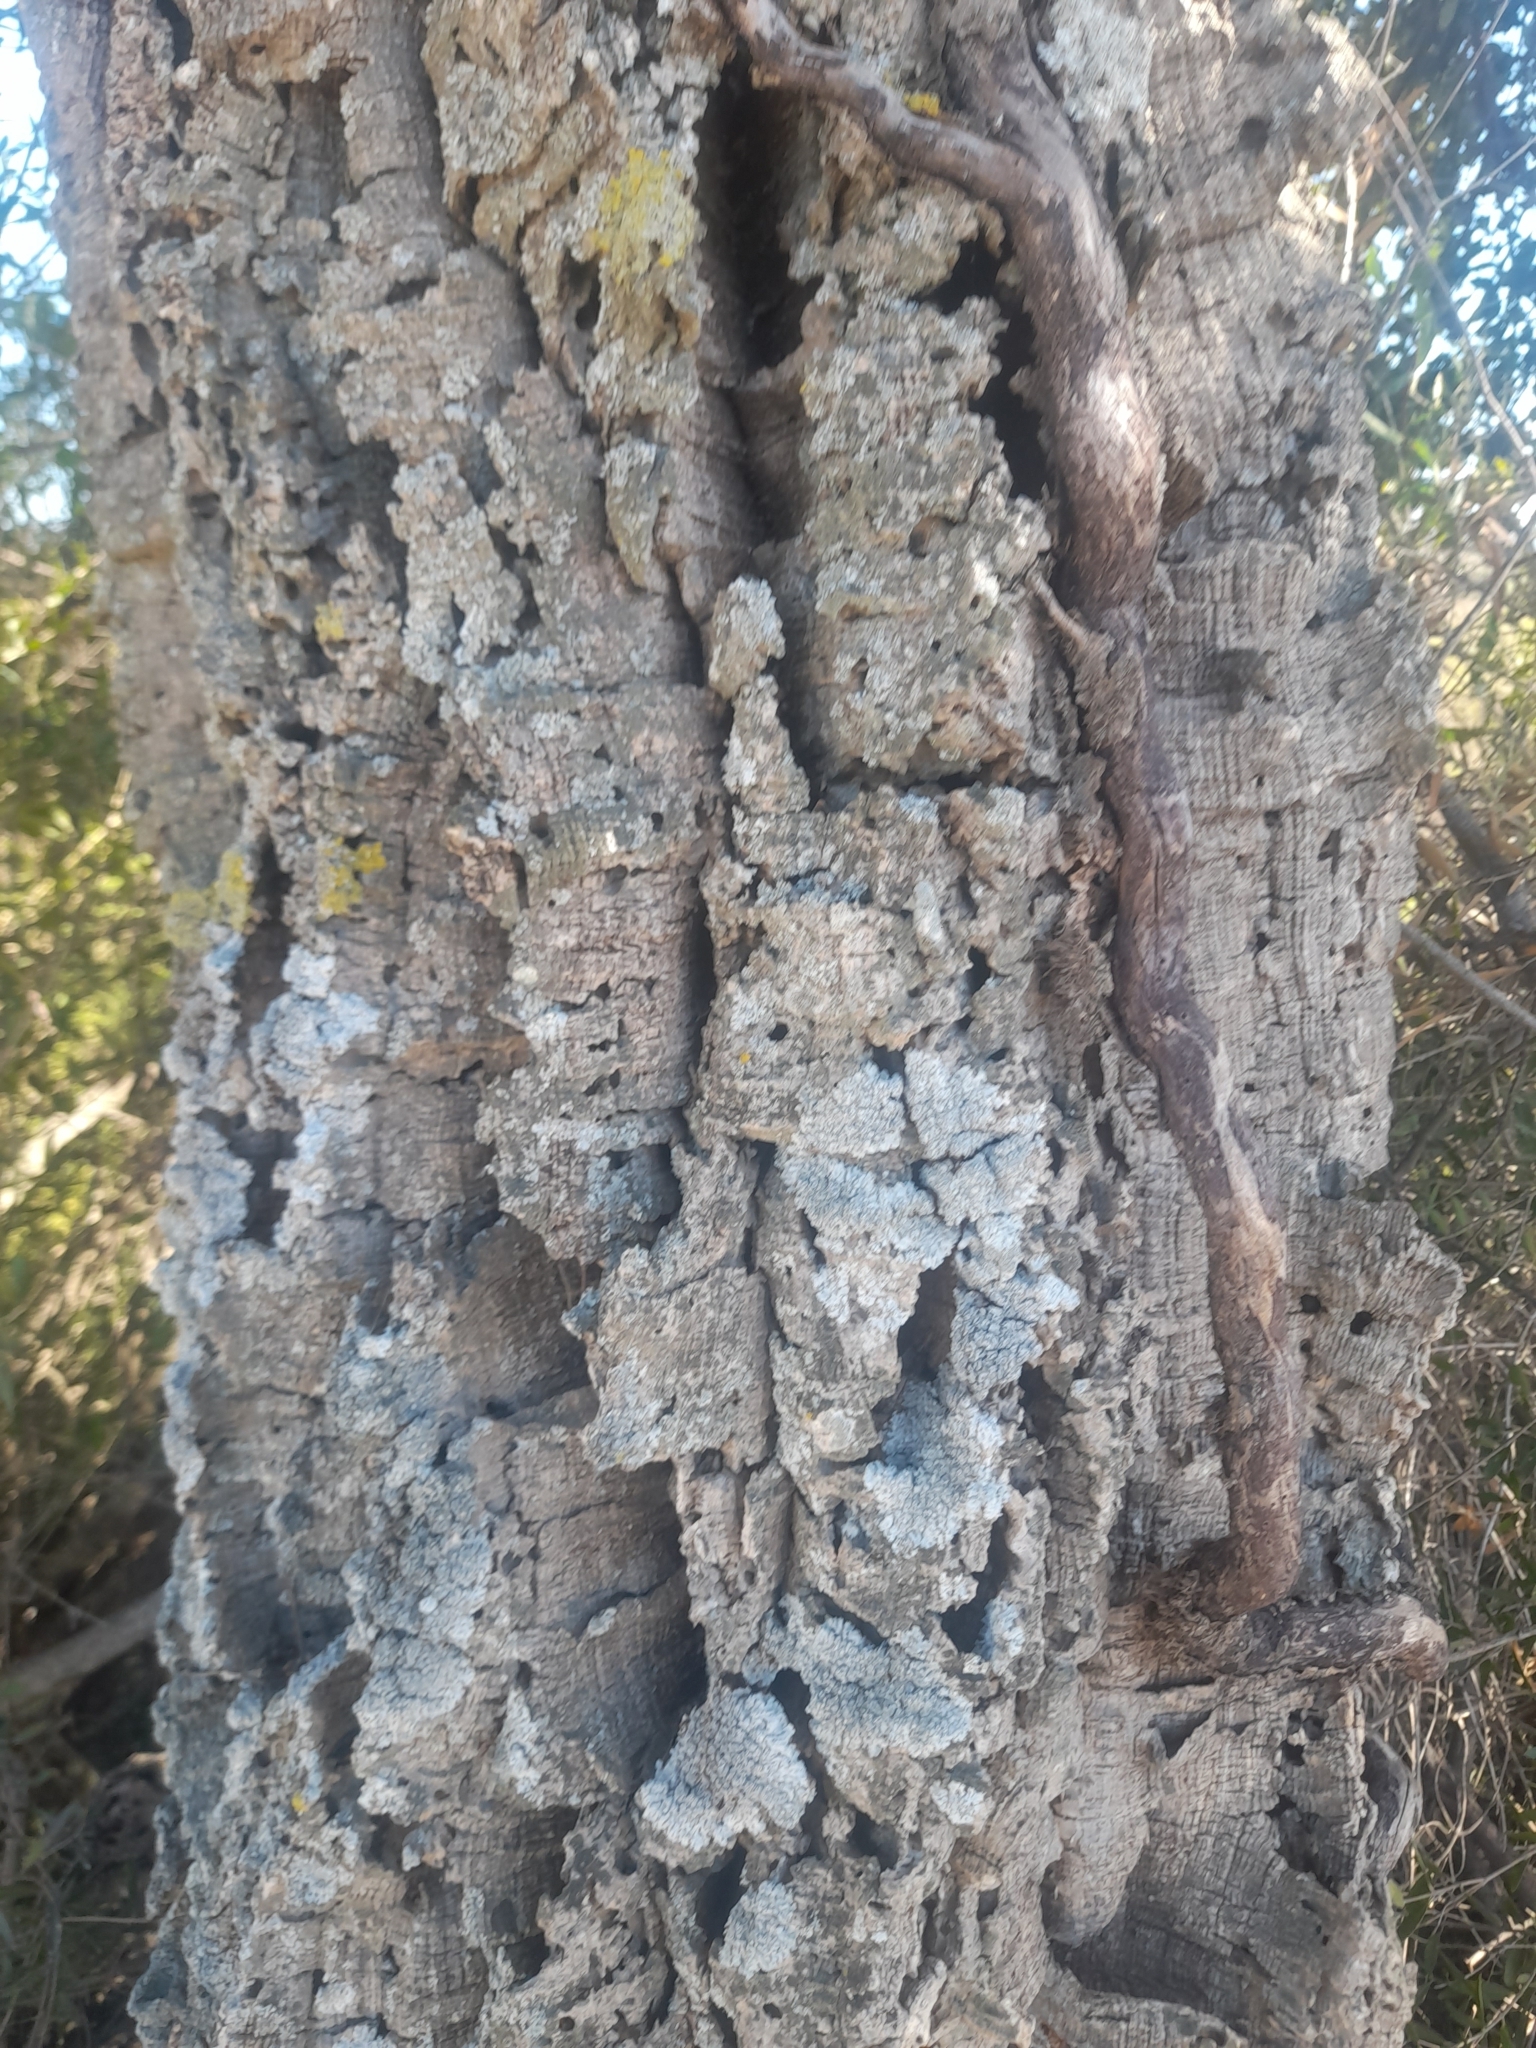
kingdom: Plantae
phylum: Tracheophyta
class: Magnoliopsida
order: Fagales
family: Fagaceae
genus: Quercus
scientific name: Quercus suber
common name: Cork oak
